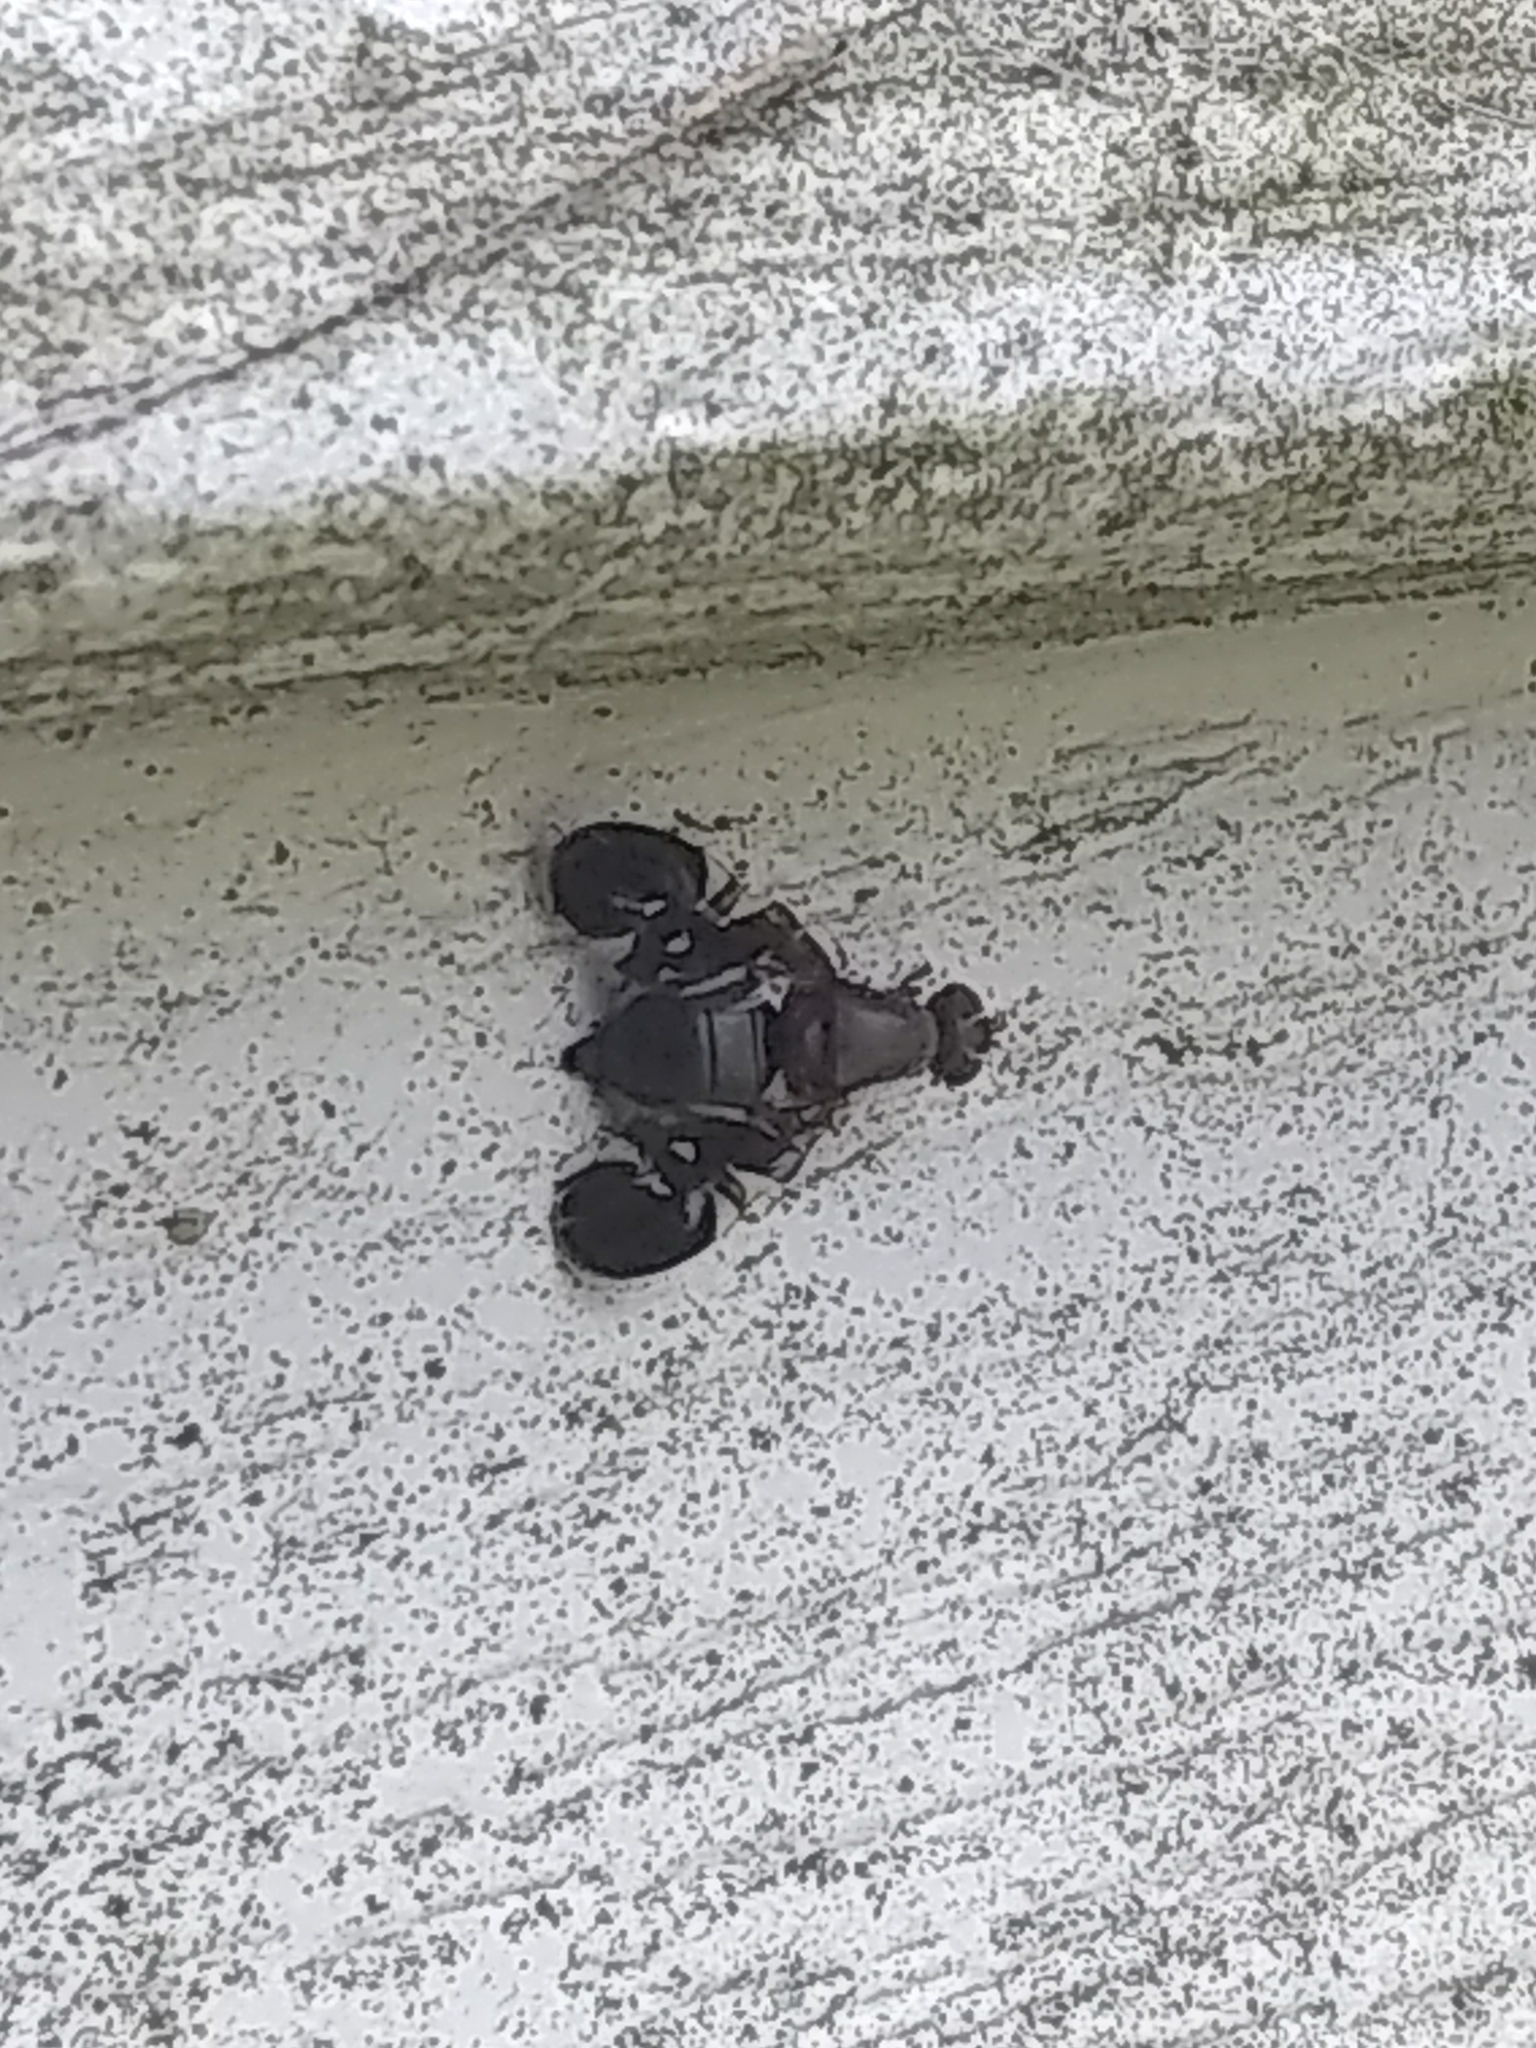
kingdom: Animalia
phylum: Arthropoda
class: Insecta
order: Diptera
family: Ulidiidae
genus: Delphinia
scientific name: Delphinia picta
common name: Common picture-winged fly
